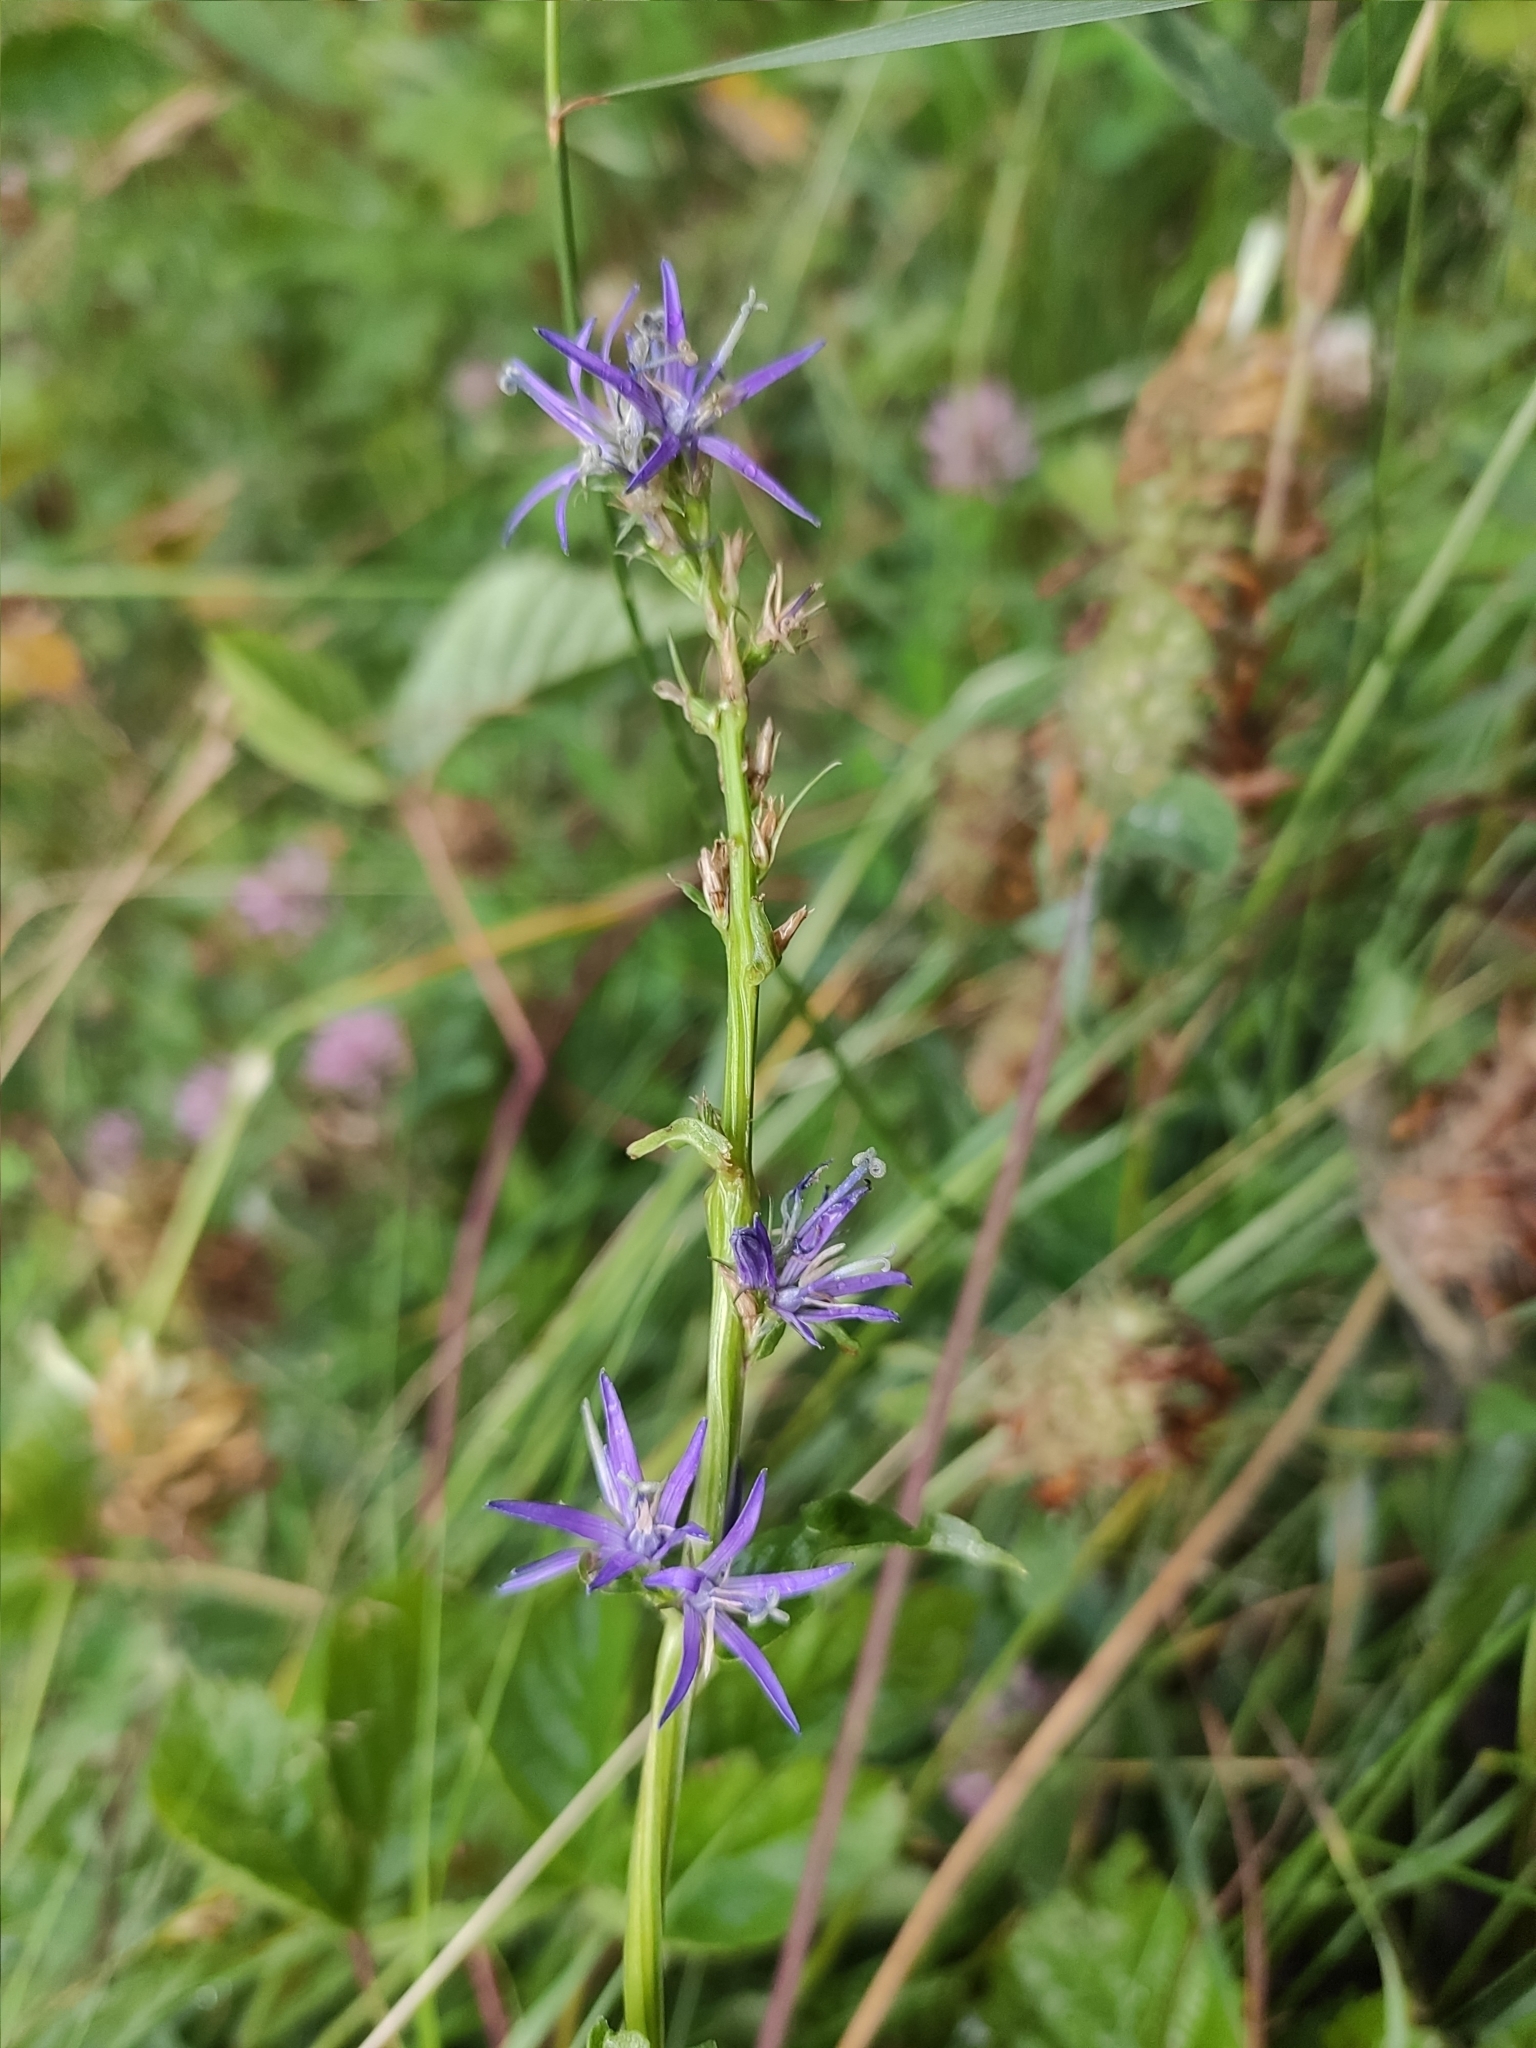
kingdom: Plantae
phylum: Tracheophyta
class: Magnoliopsida
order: Asterales
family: Campanulaceae
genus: Asyneuma
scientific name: Asyneuma campanuloides
